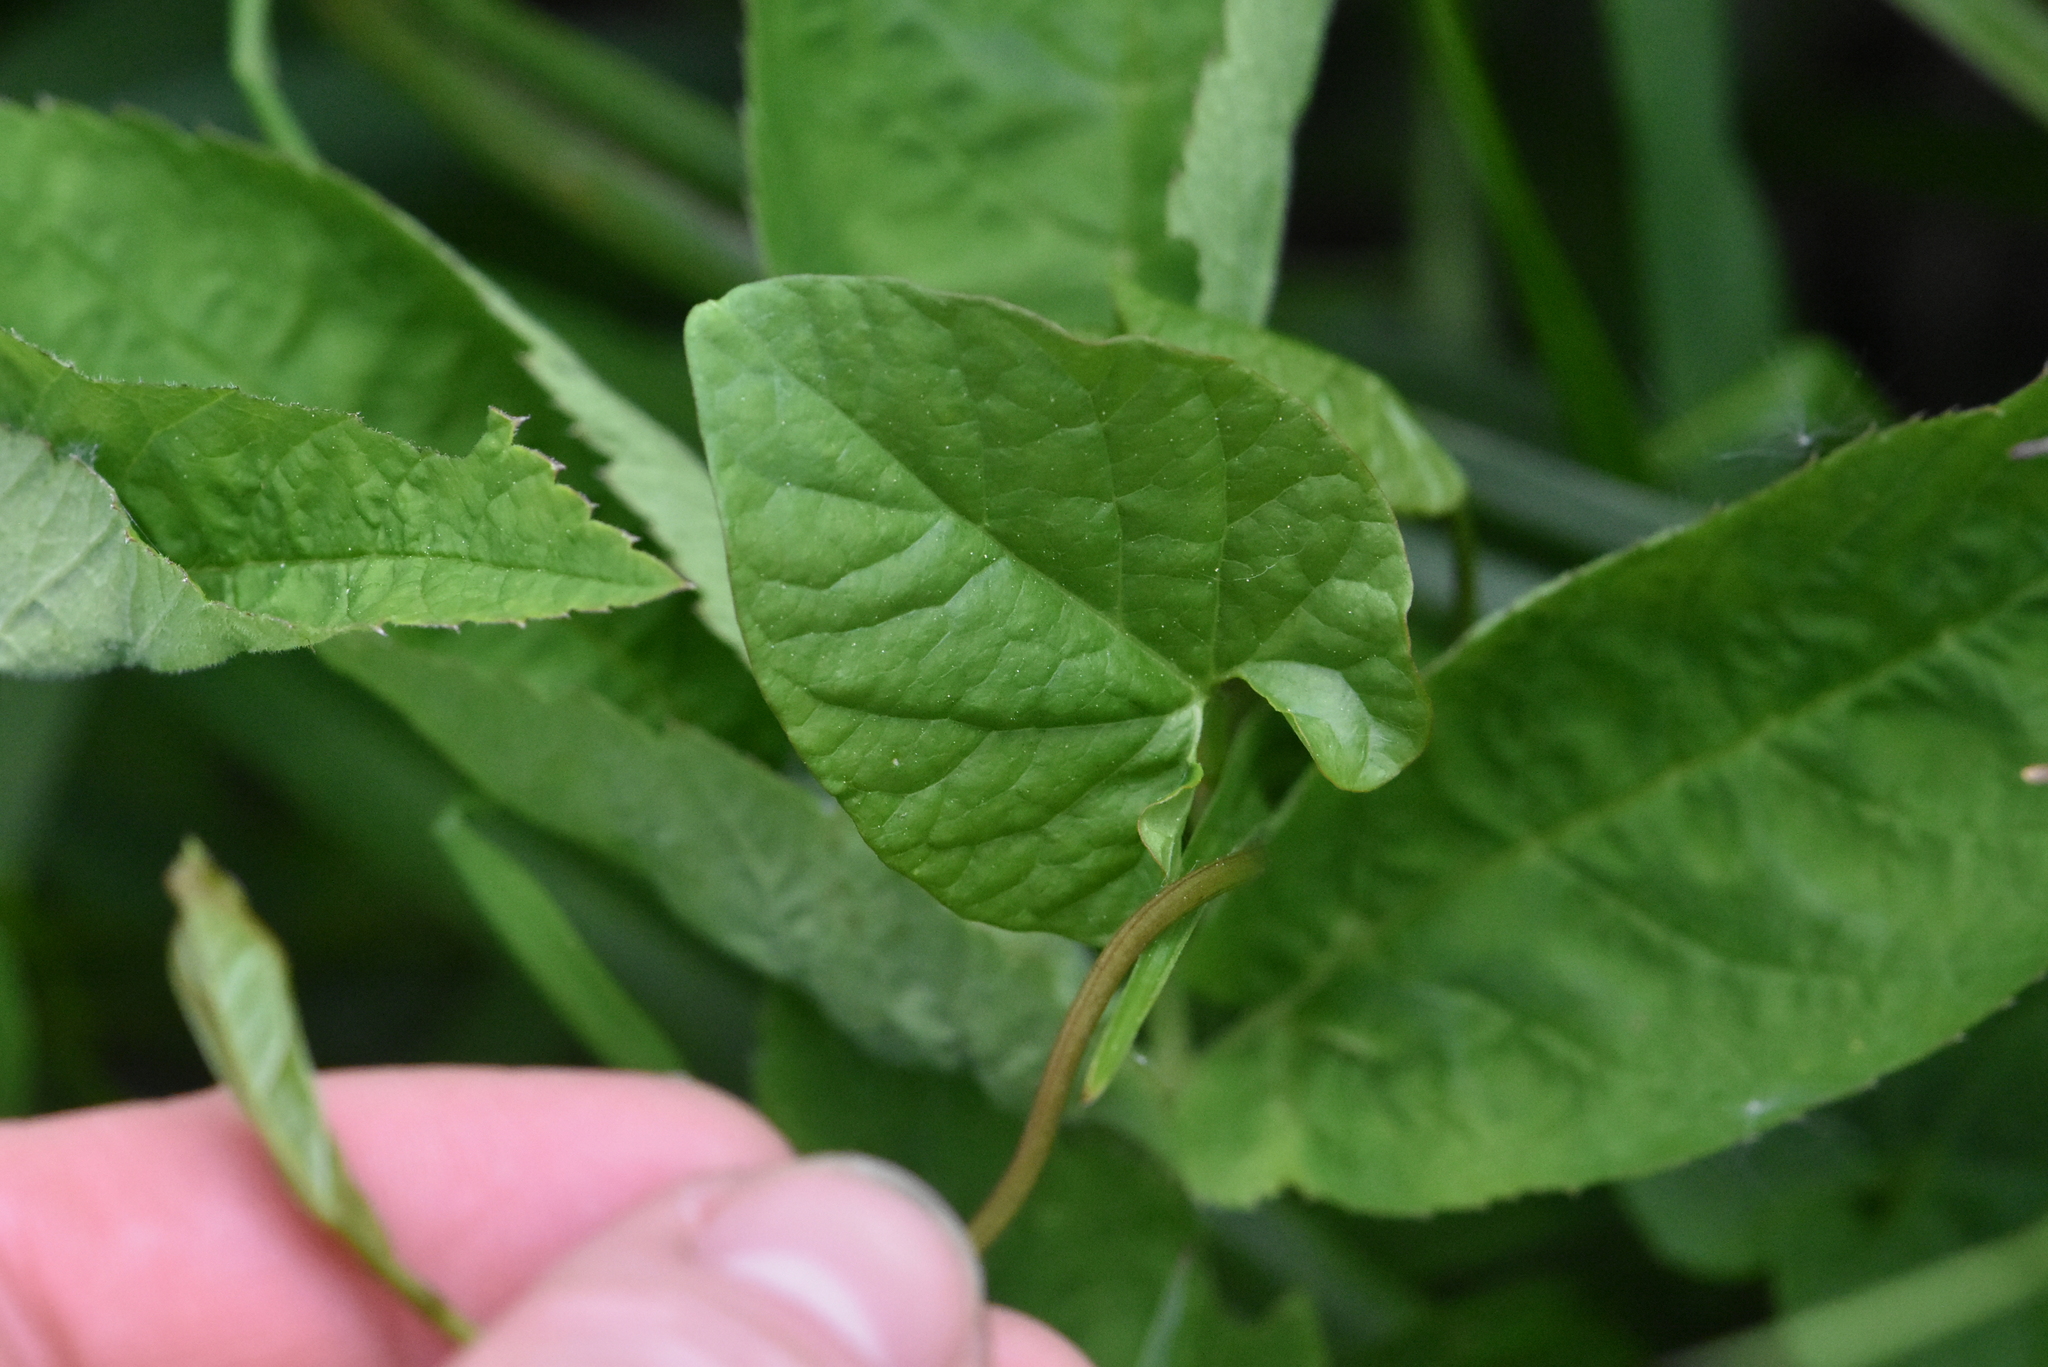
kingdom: Plantae
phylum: Tracheophyta
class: Magnoliopsida
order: Solanales
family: Convolvulaceae
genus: Calystegia
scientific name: Calystegia
